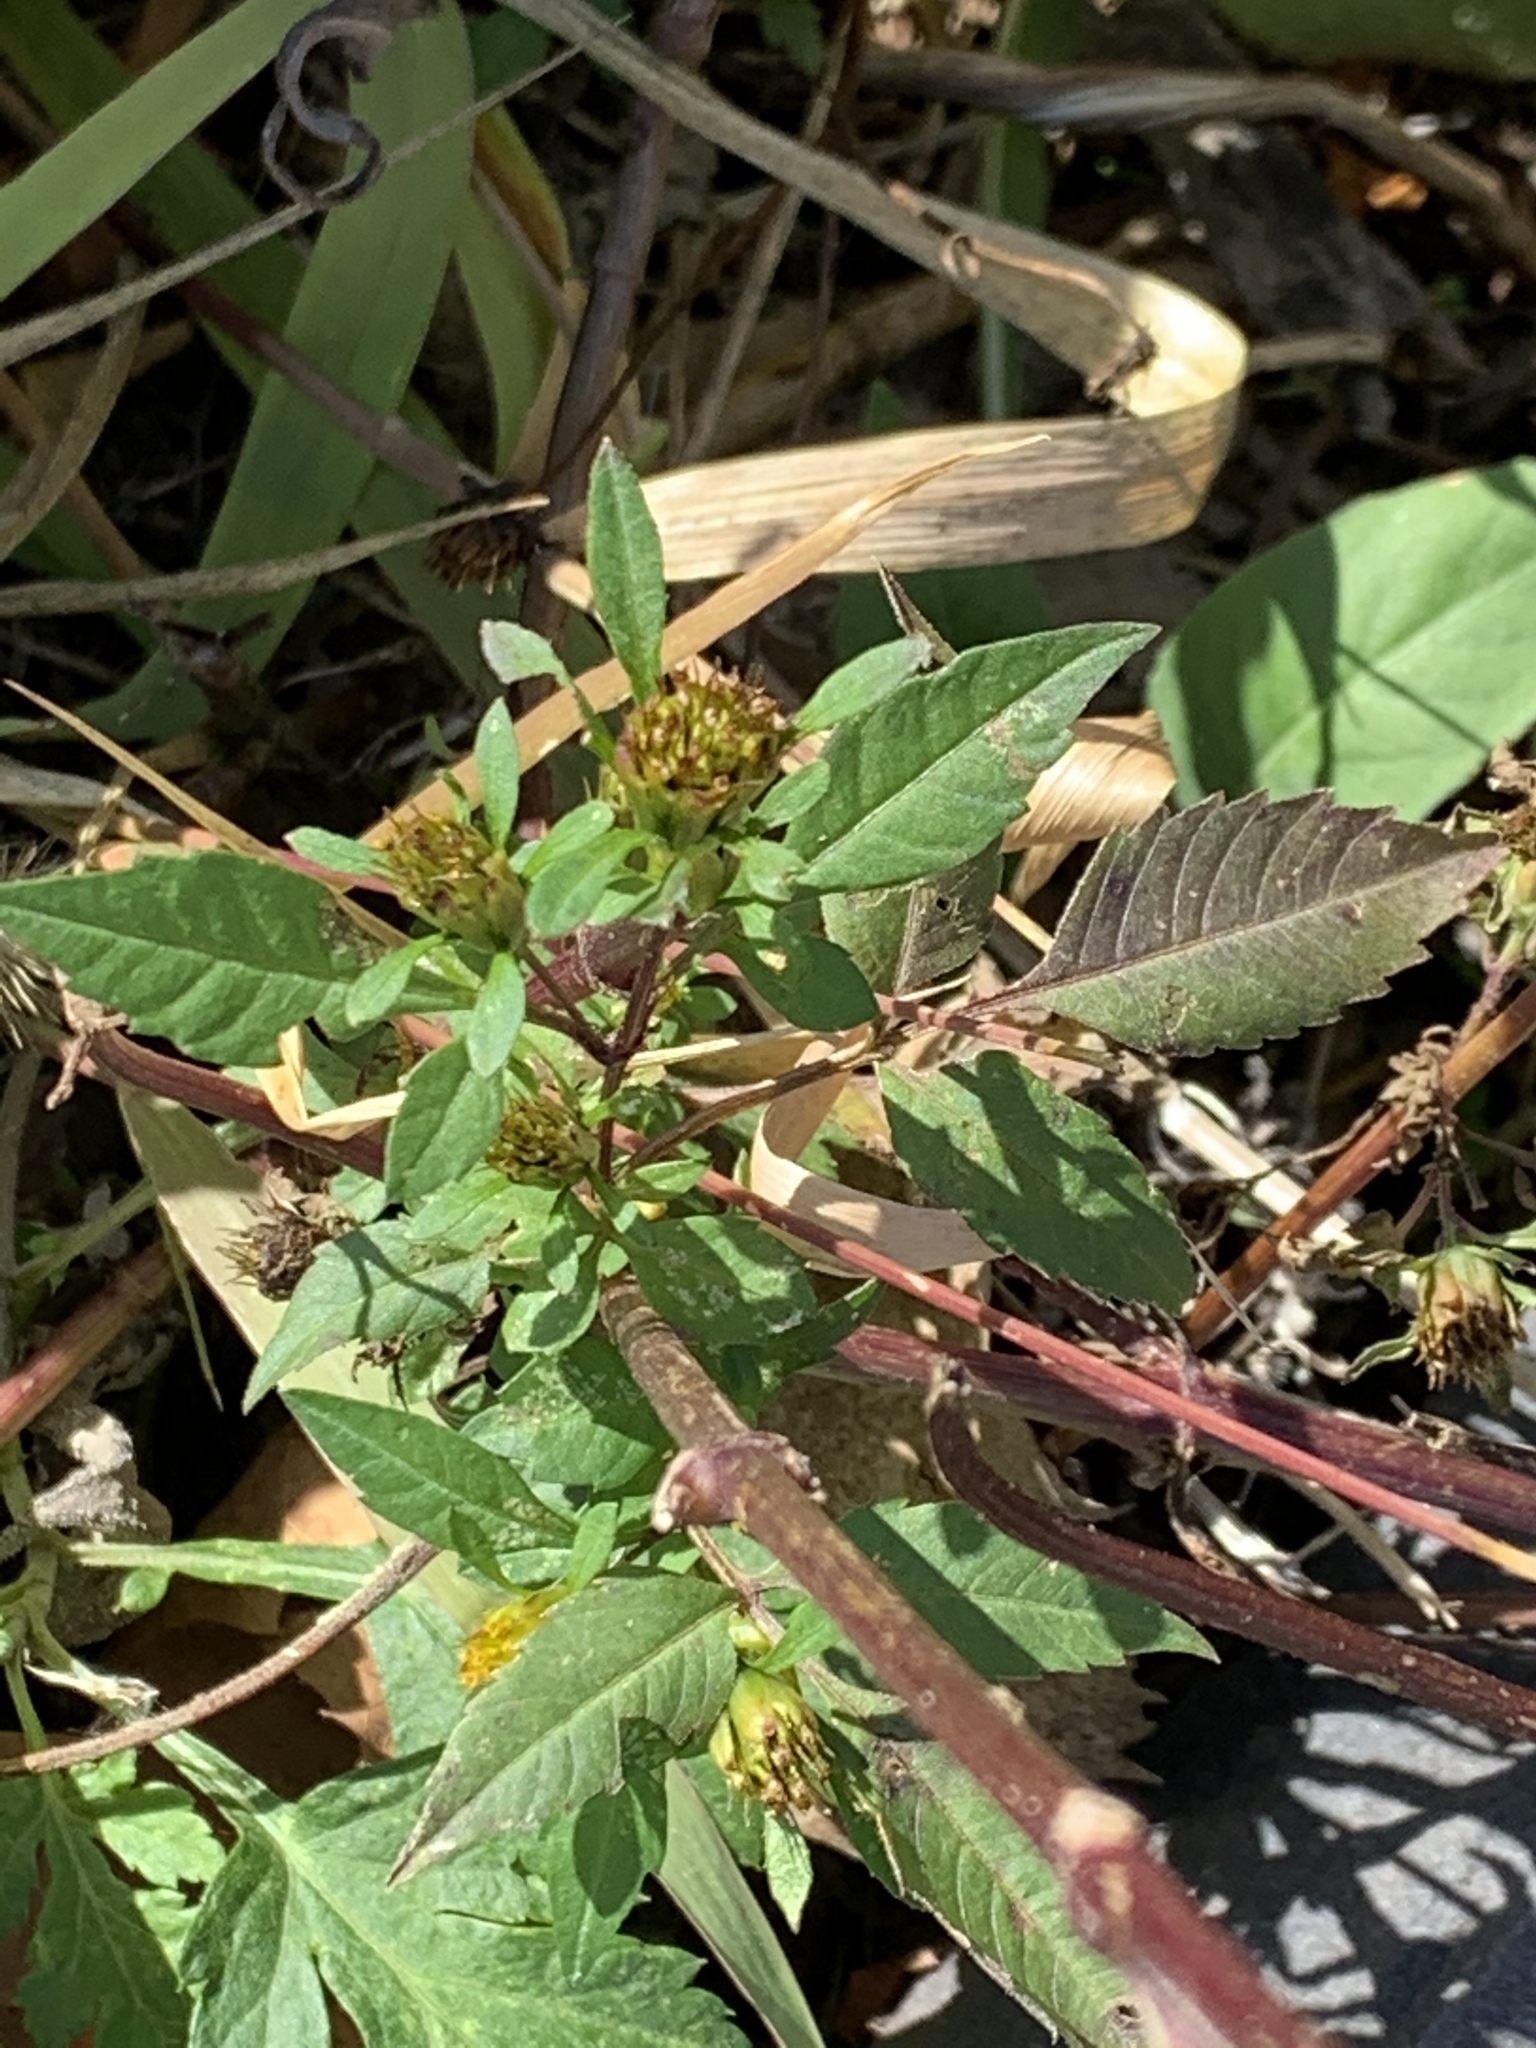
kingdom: Plantae
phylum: Tracheophyta
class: Magnoliopsida
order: Asterales
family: Asteraceae
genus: Bidens
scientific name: Bidens frondosa
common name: Beggarticks
